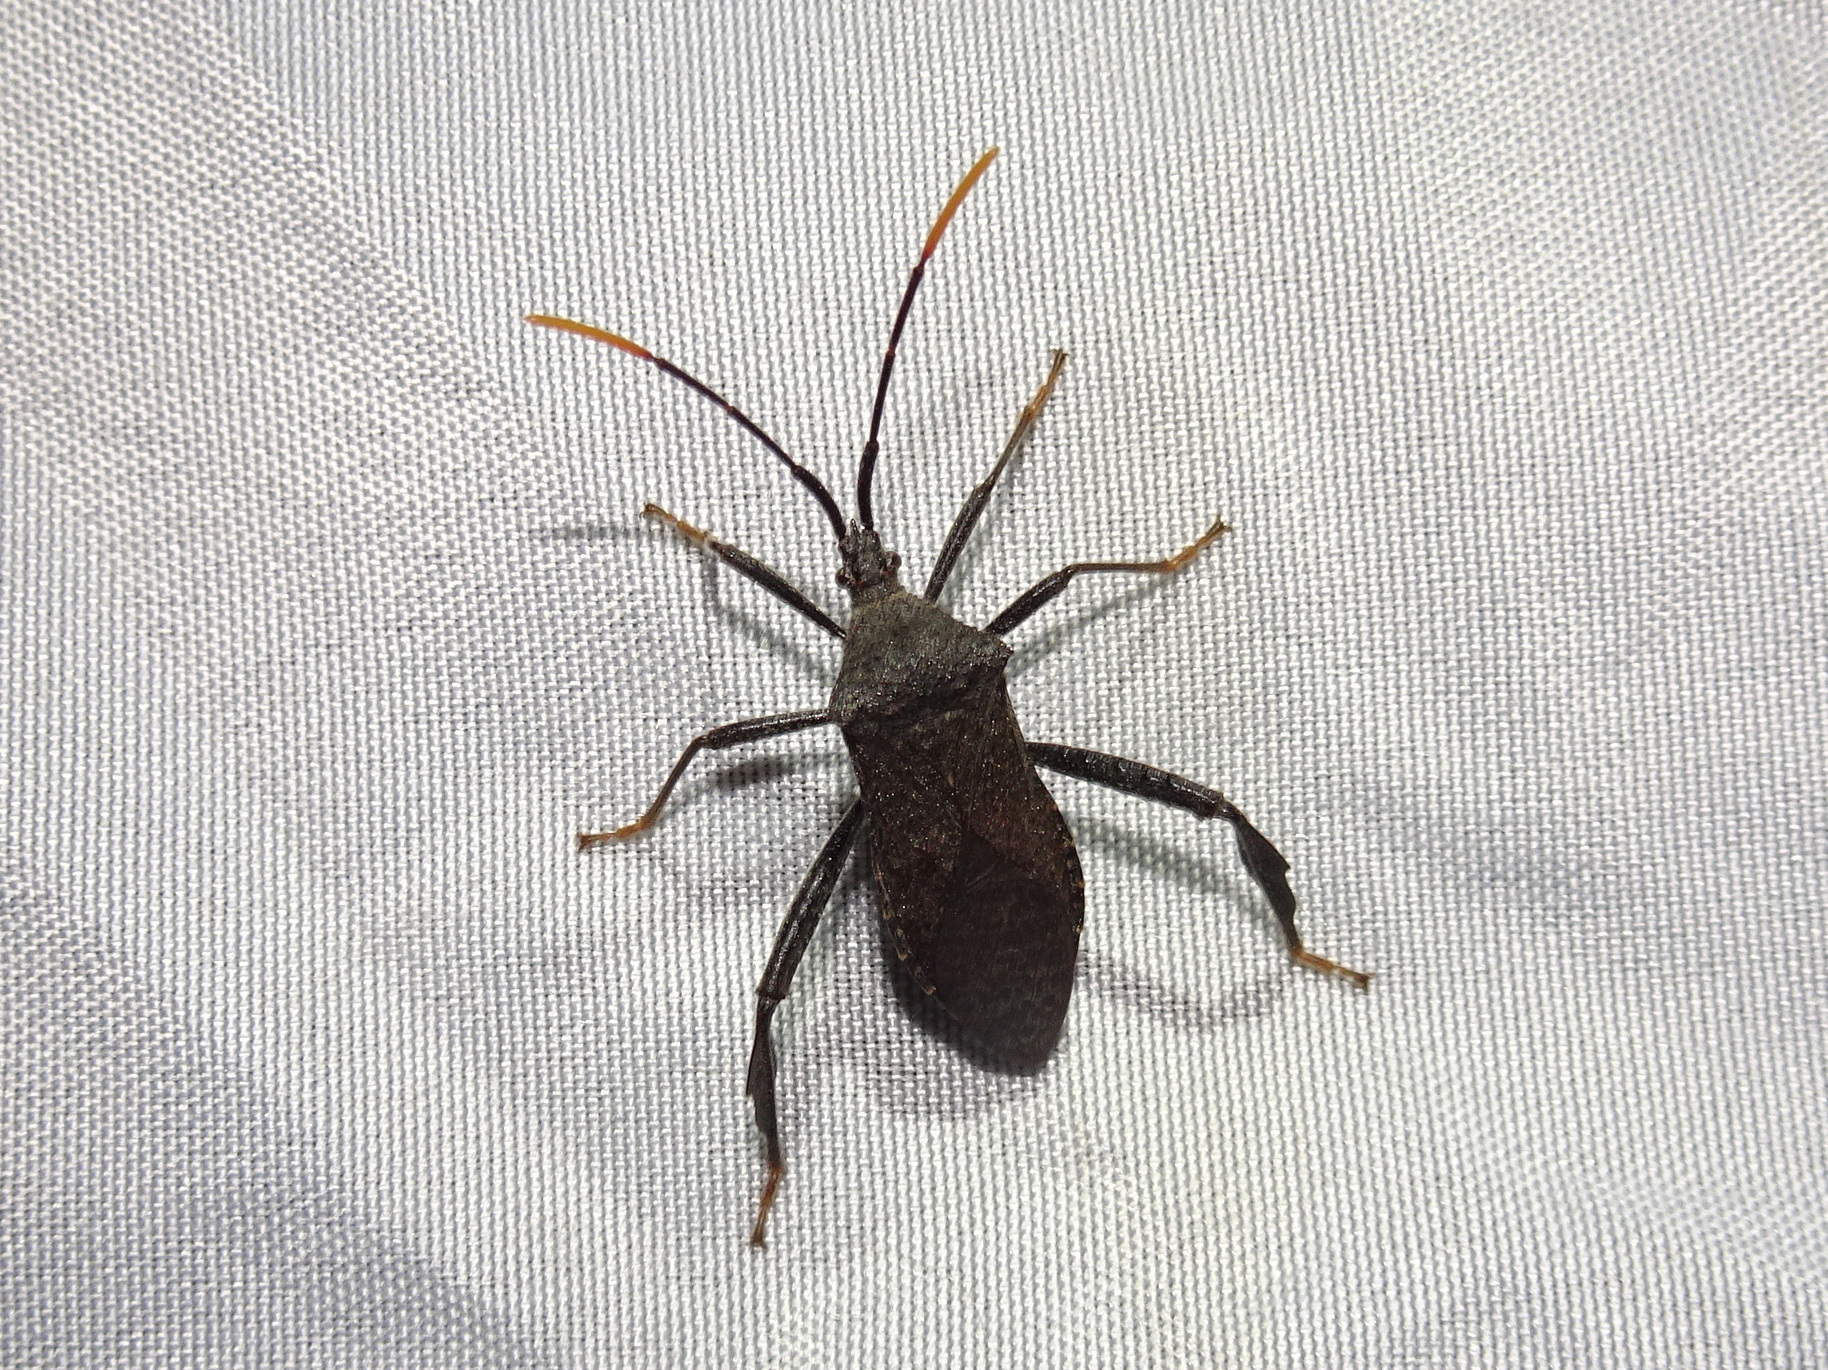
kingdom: Animalia
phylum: Arthropoda
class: Insecta
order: Hemiptera
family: Coreidae
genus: Acanthocephala
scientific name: Acanthocephala terminalis
